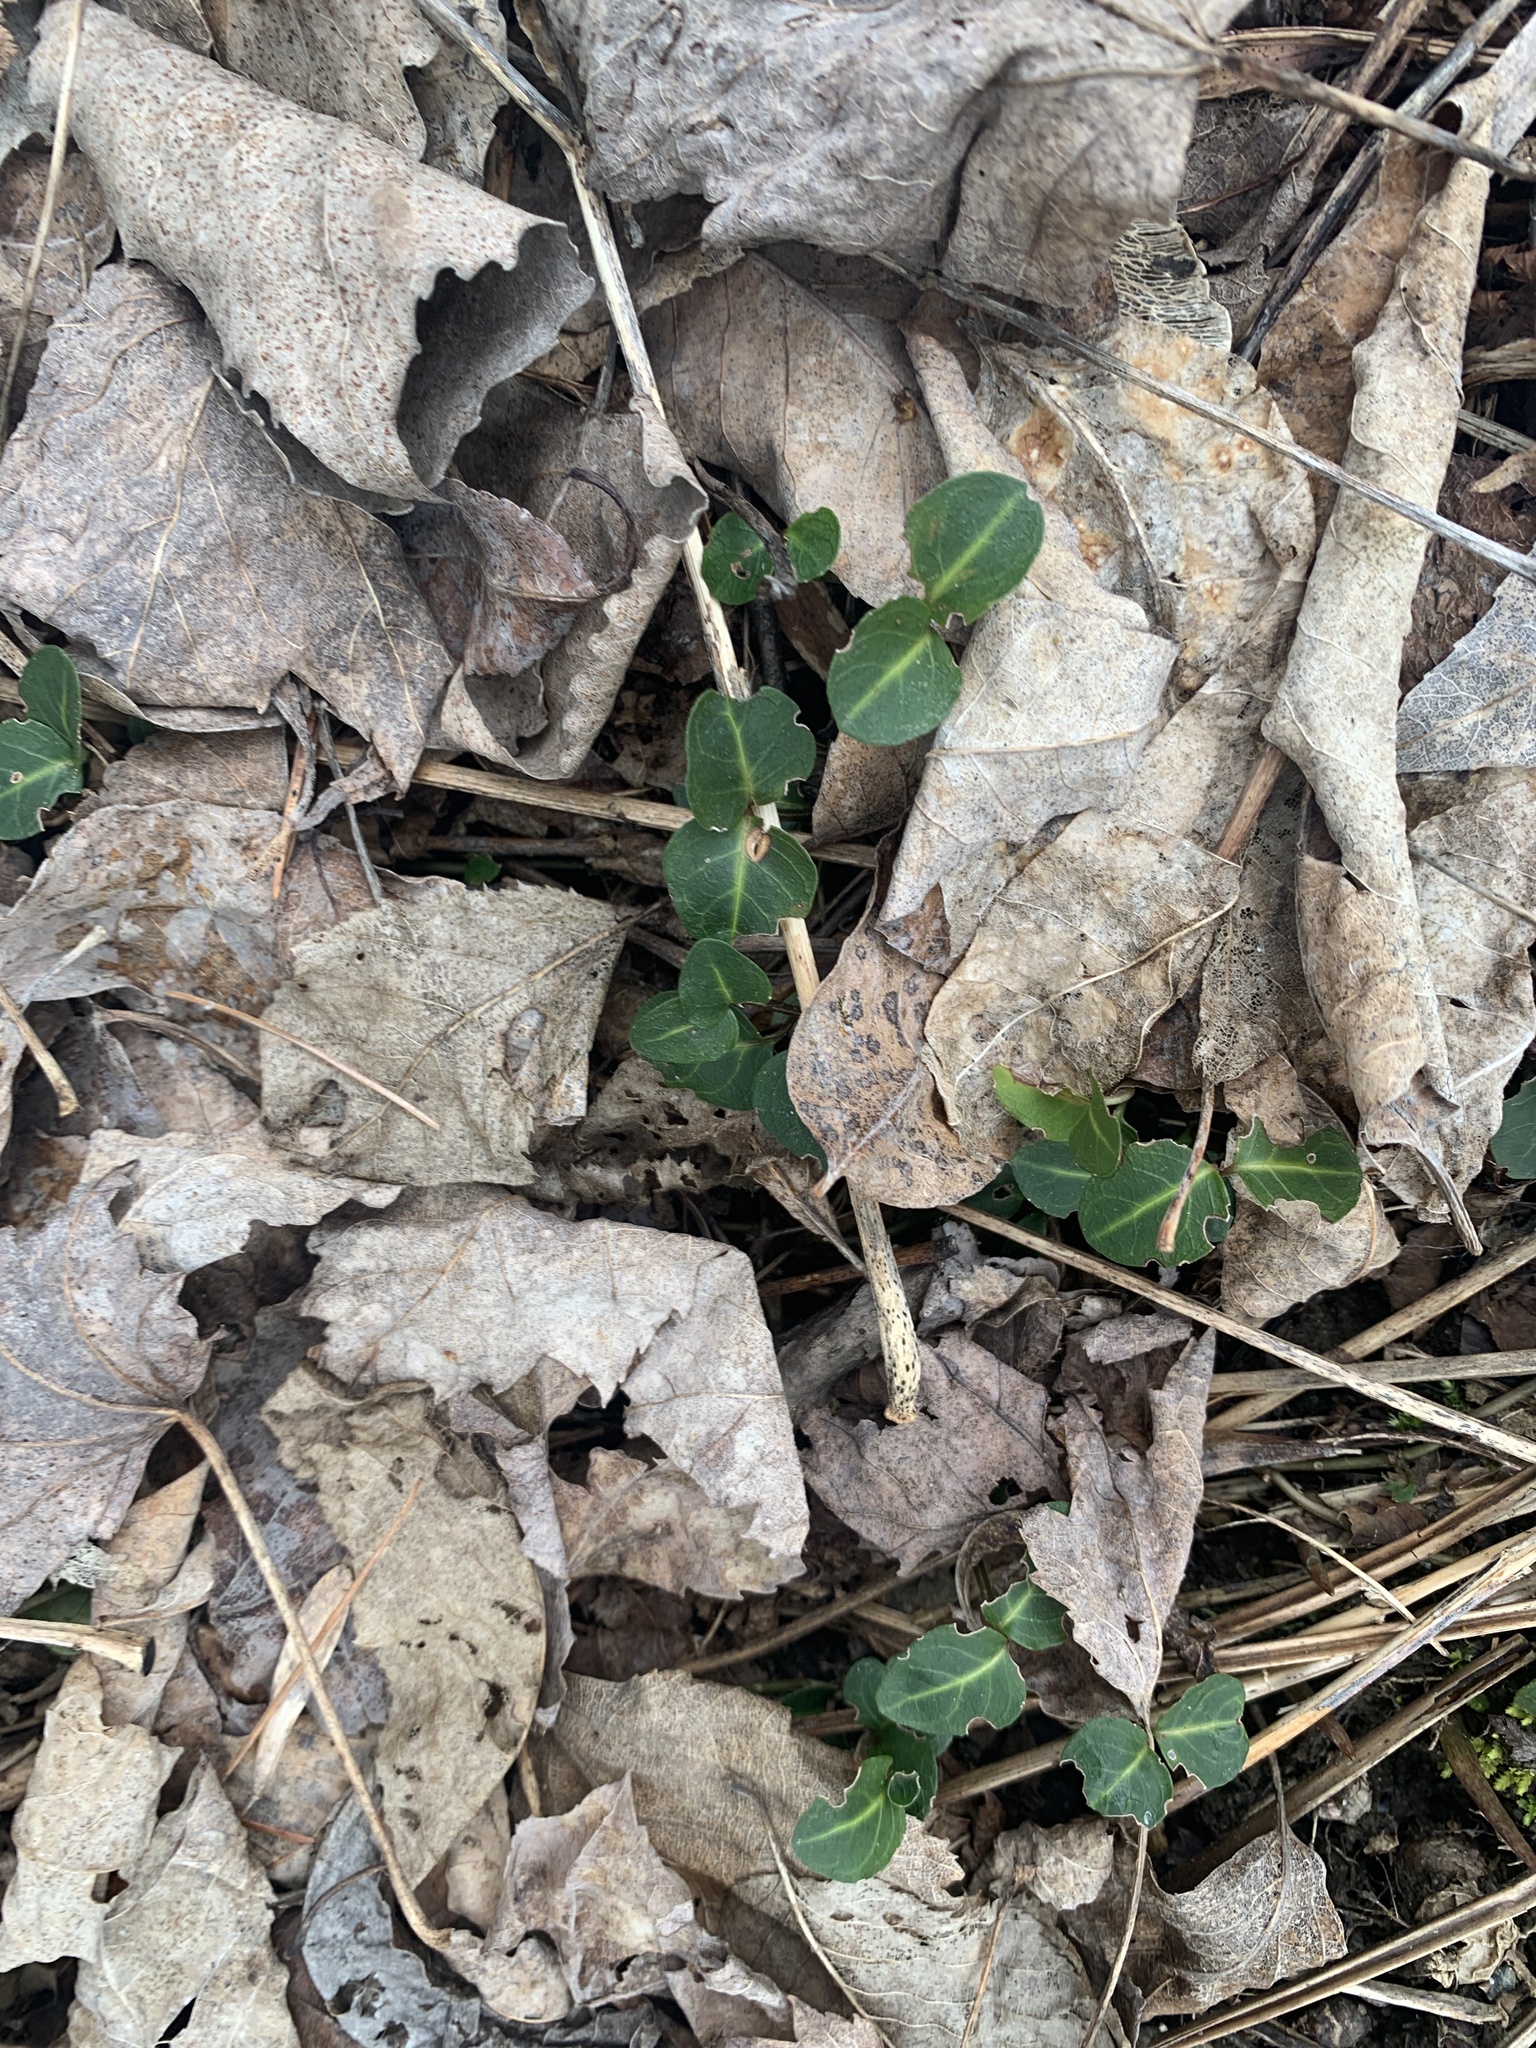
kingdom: Plantae
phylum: Tracheophyta
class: Magnoliopsida
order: Gentianales
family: Rubiaceae
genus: Mitchella
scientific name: Mitchella repens
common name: Partridge-berry
